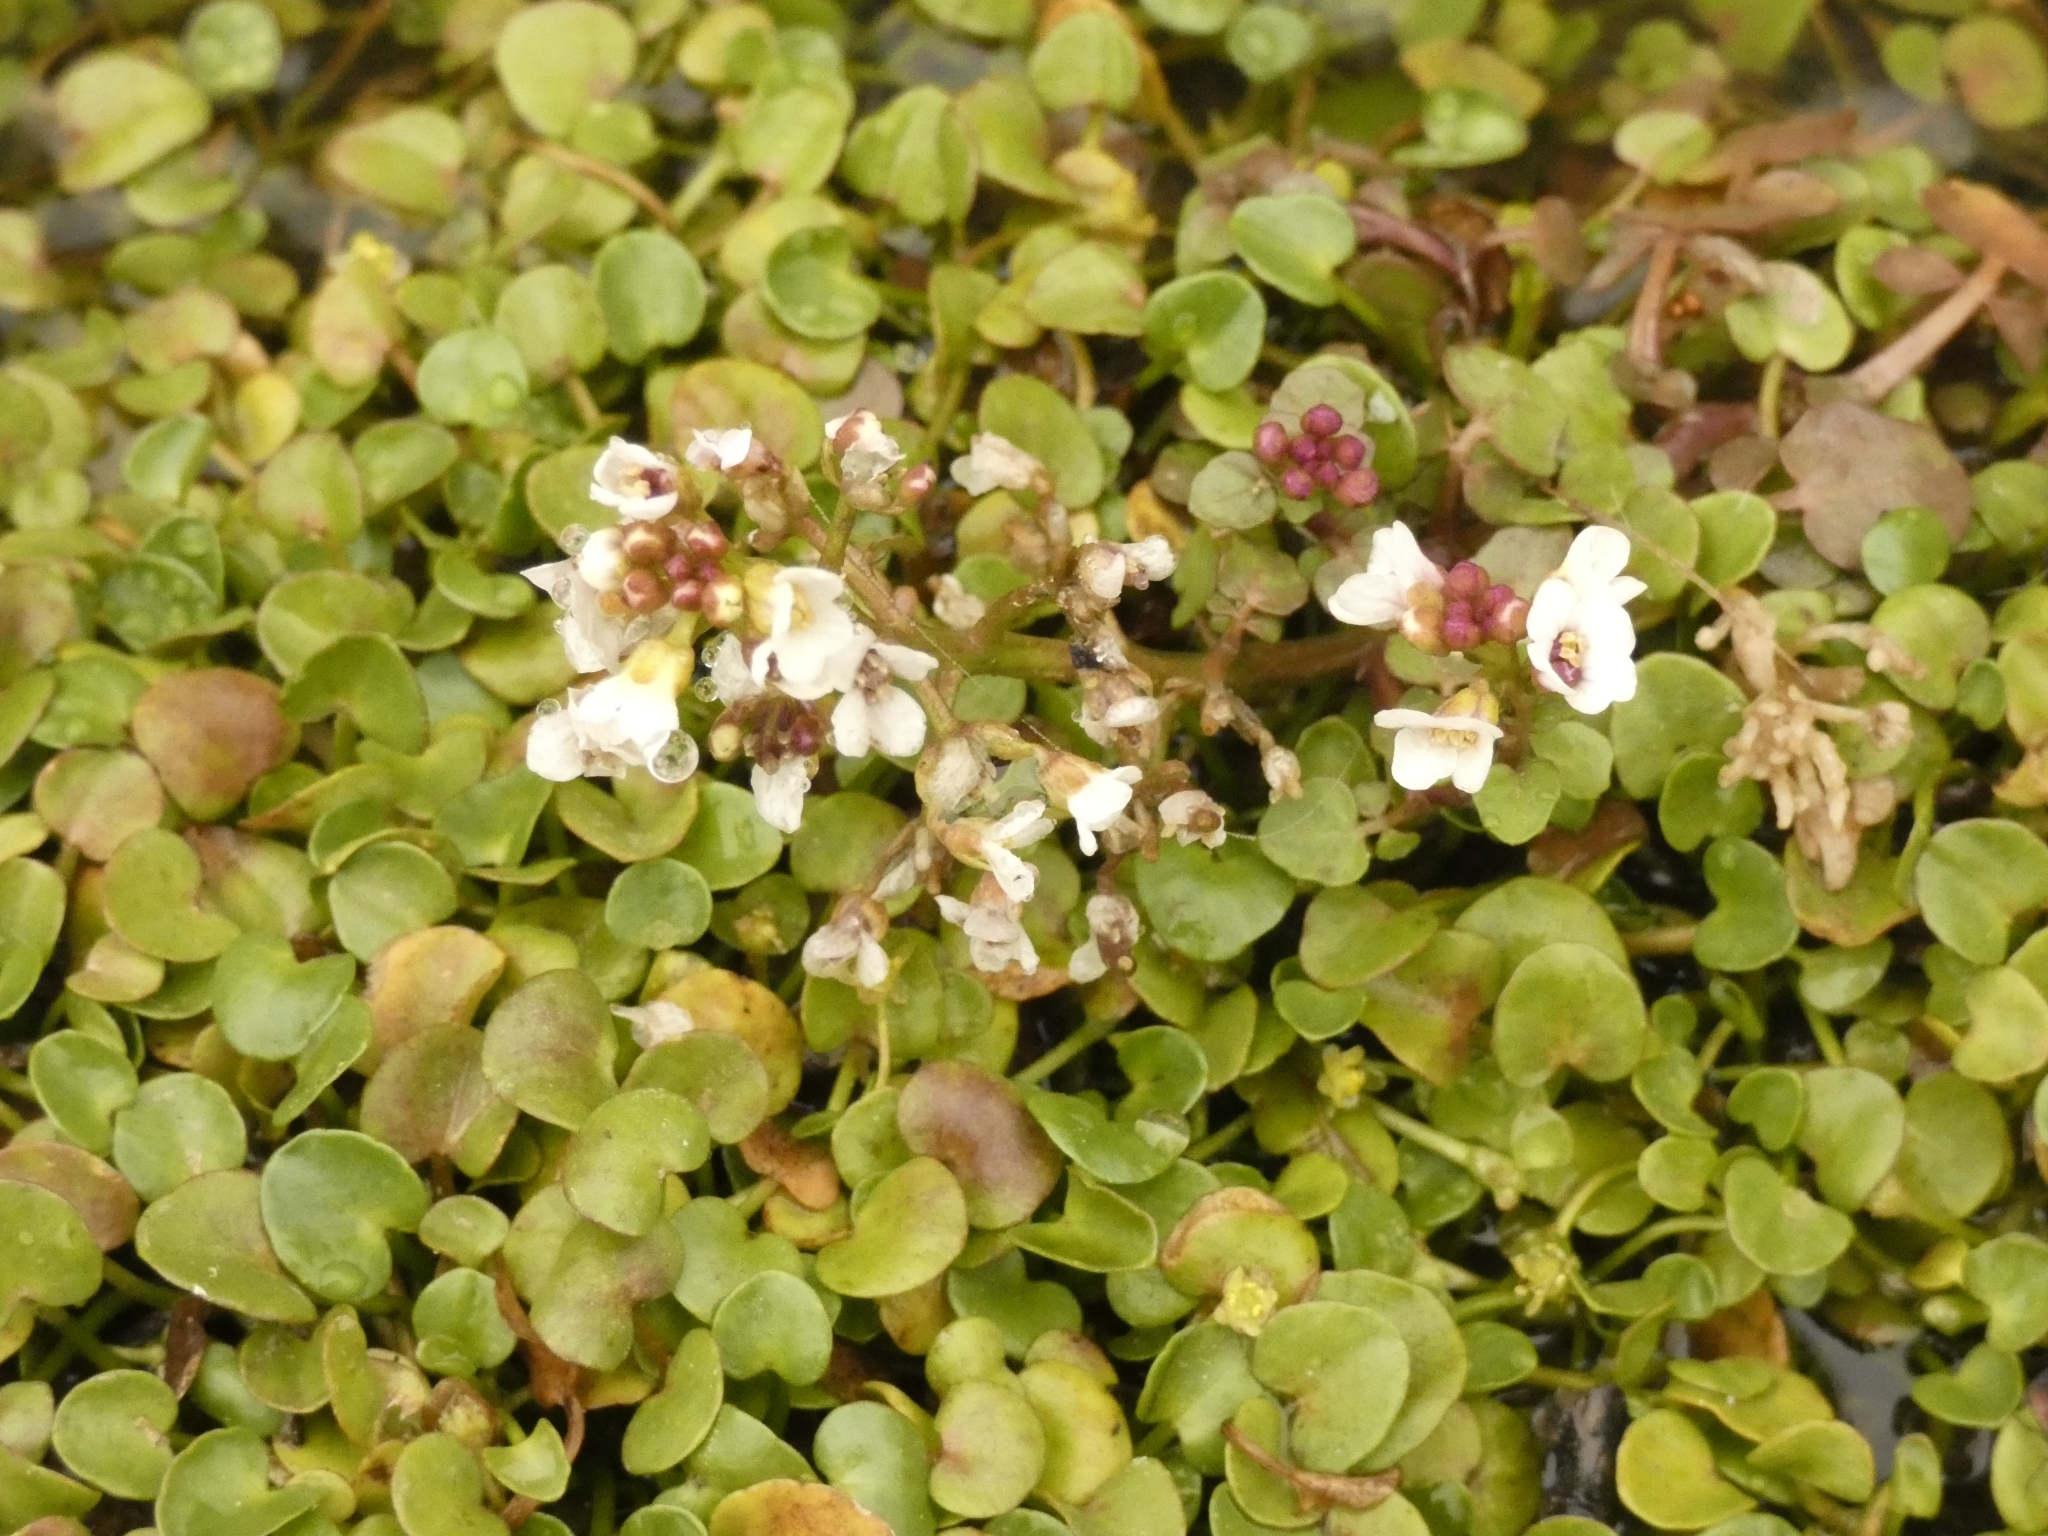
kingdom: Plantae
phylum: Tracheophyta
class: Magnoliopsida
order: Brassicales
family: Brassicaceae
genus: Nasturtium
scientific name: Nasturtium officinale
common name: Watercress
